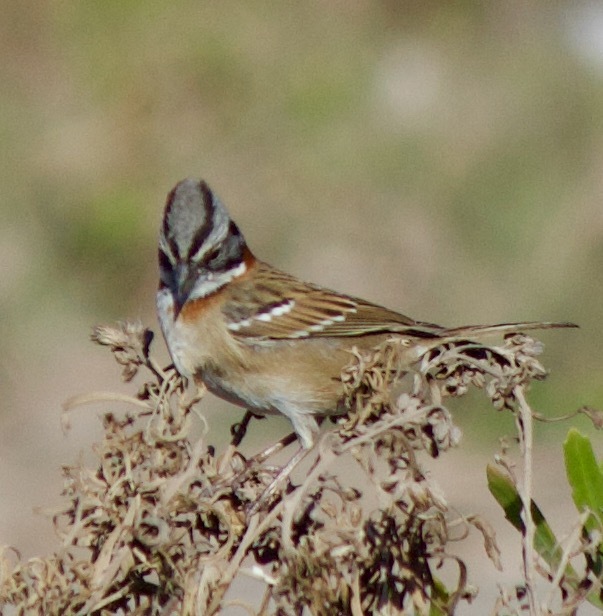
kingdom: Animalia
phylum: Chordata
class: Aves
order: Passeriformes
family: Passerellidae
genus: Zonotrichia
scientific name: Zonotrichia capensis
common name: Rufous-collared sparrow
